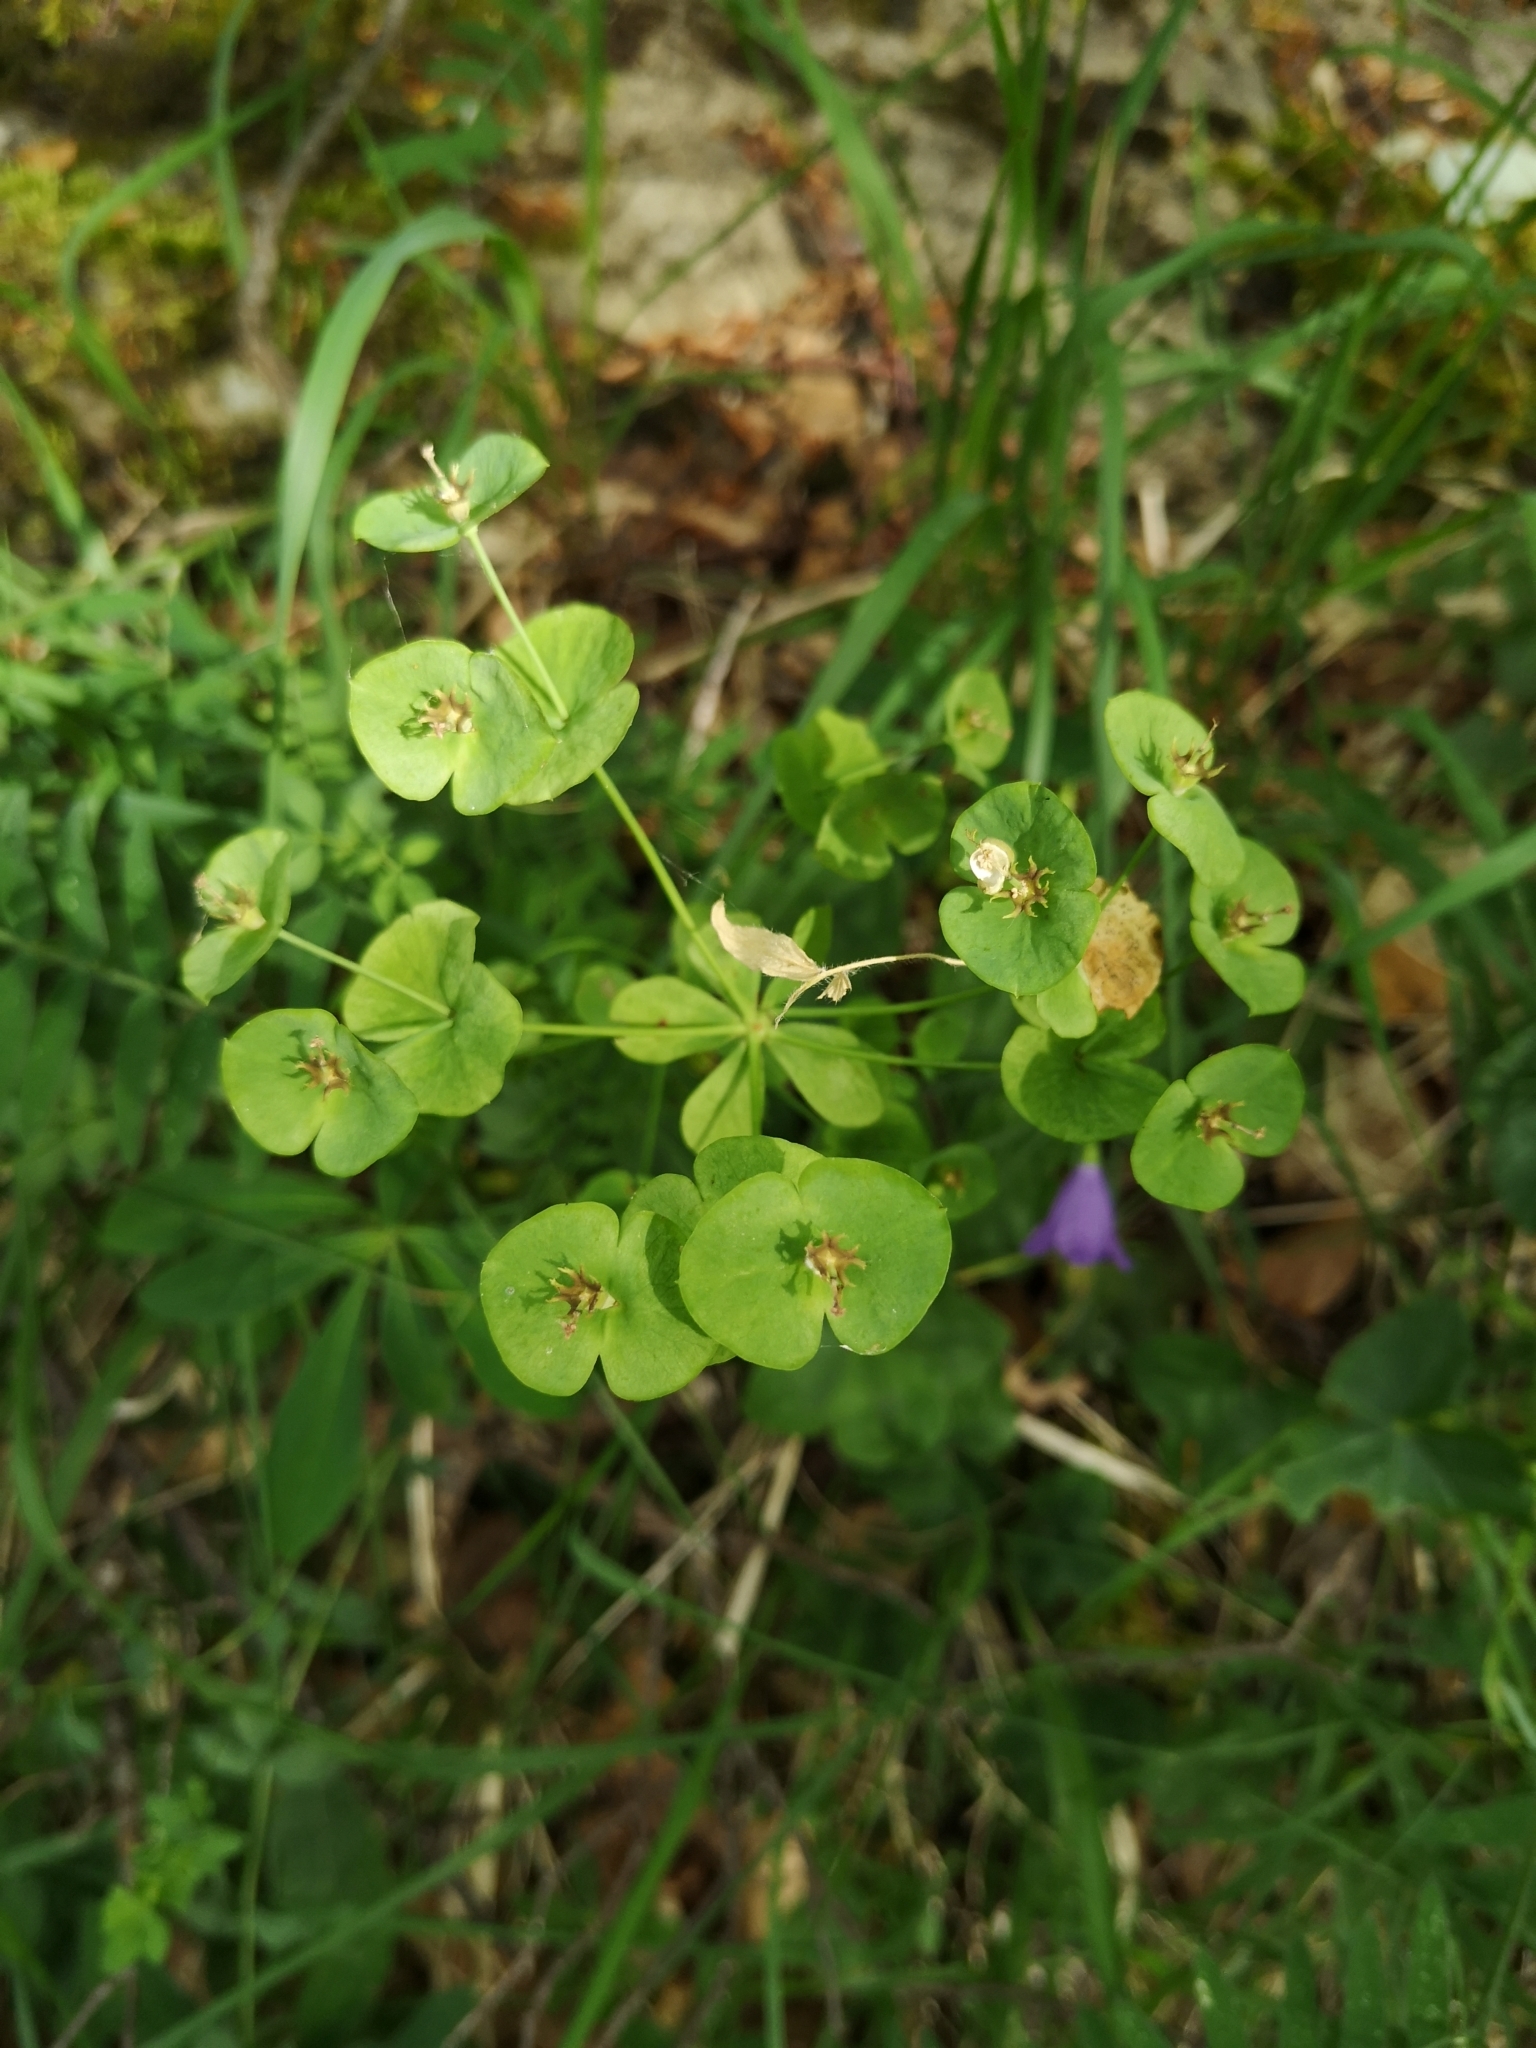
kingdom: Plantae
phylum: Tracheophyta
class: Magnoliopsida
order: Malpighiales
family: Euphorbiaceae
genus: Euphorbia
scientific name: Euphorbia amygdaloides
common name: Wood spurge
